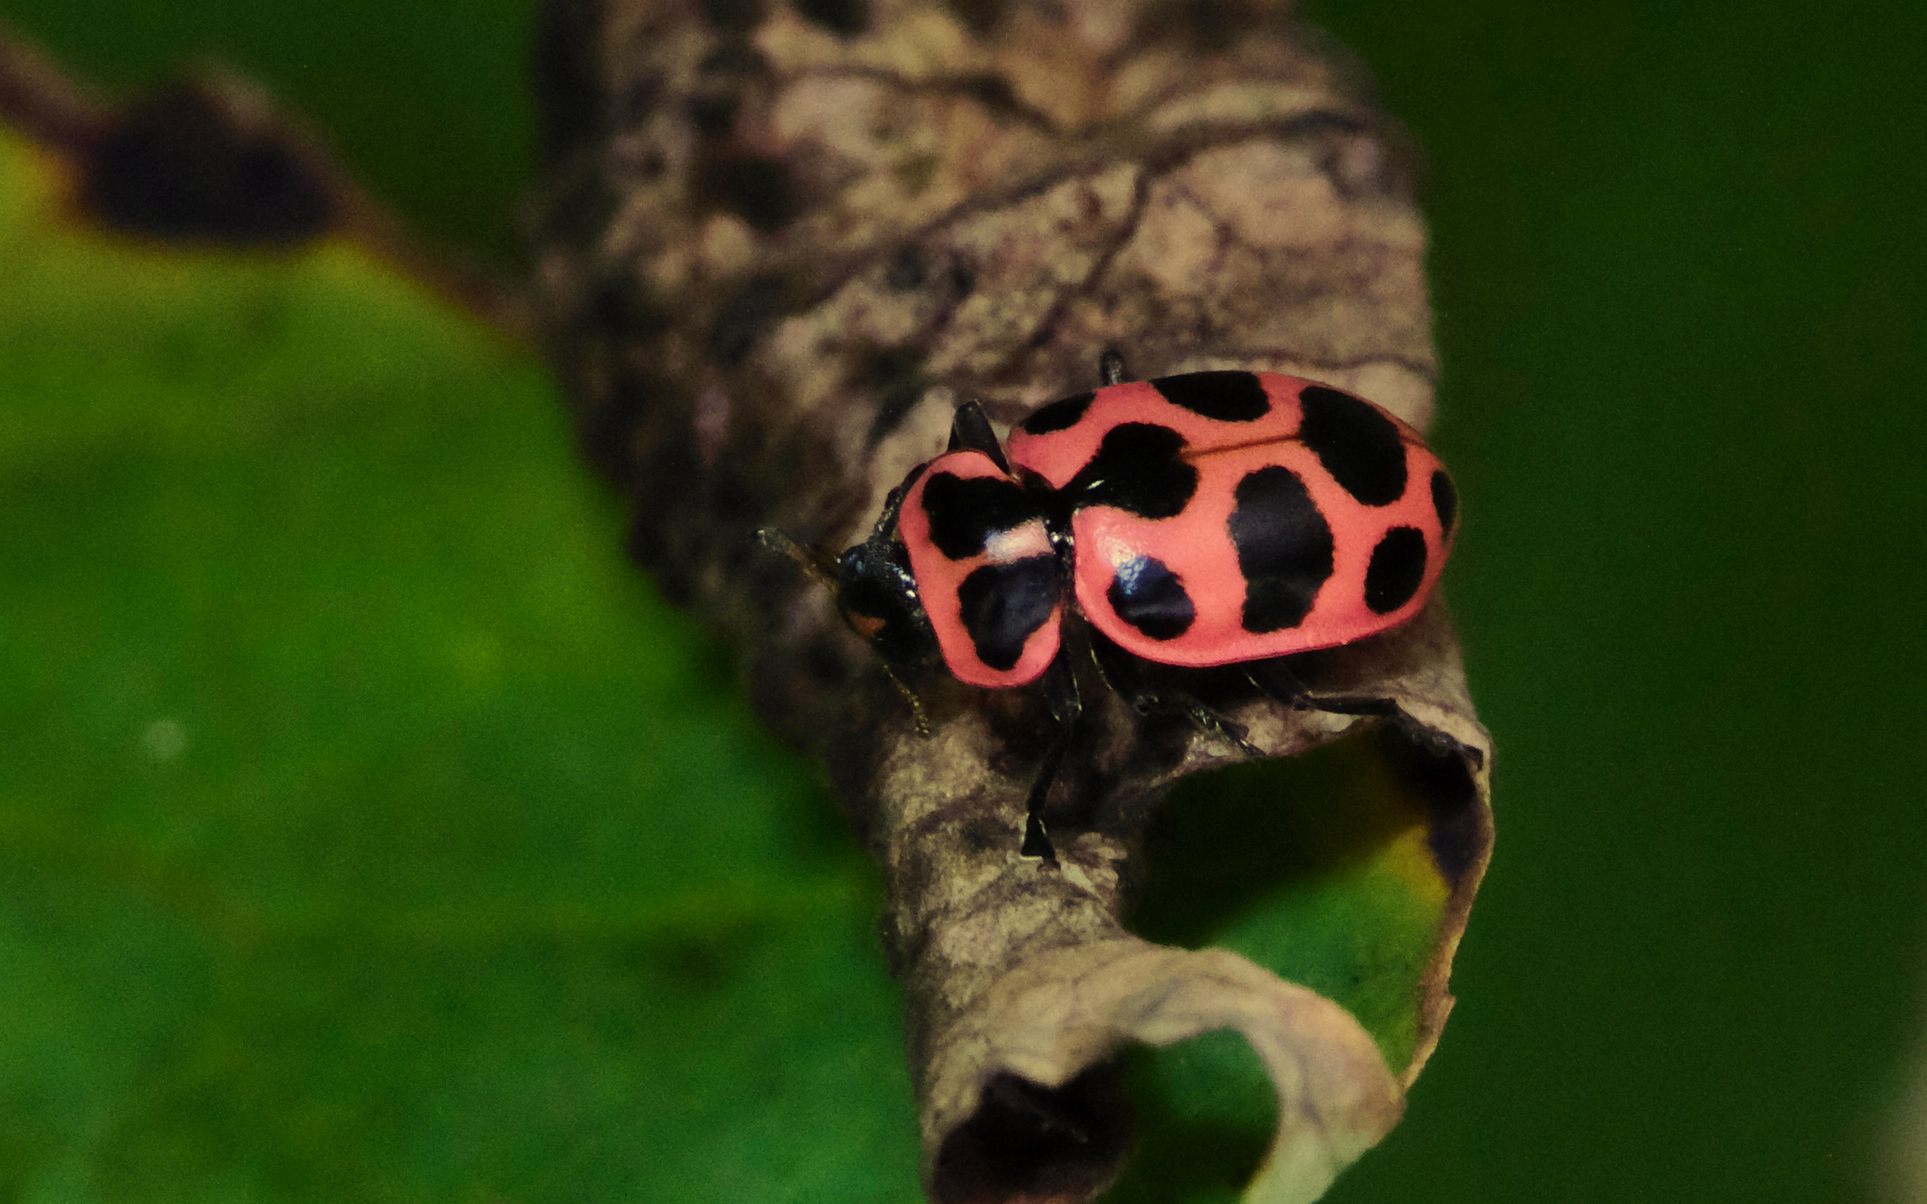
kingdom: Animalia
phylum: Arthropoda
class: Insecta
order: Coleoptera
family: Coccinellidae
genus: Coleomegilla
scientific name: Coleomegilla maculata
